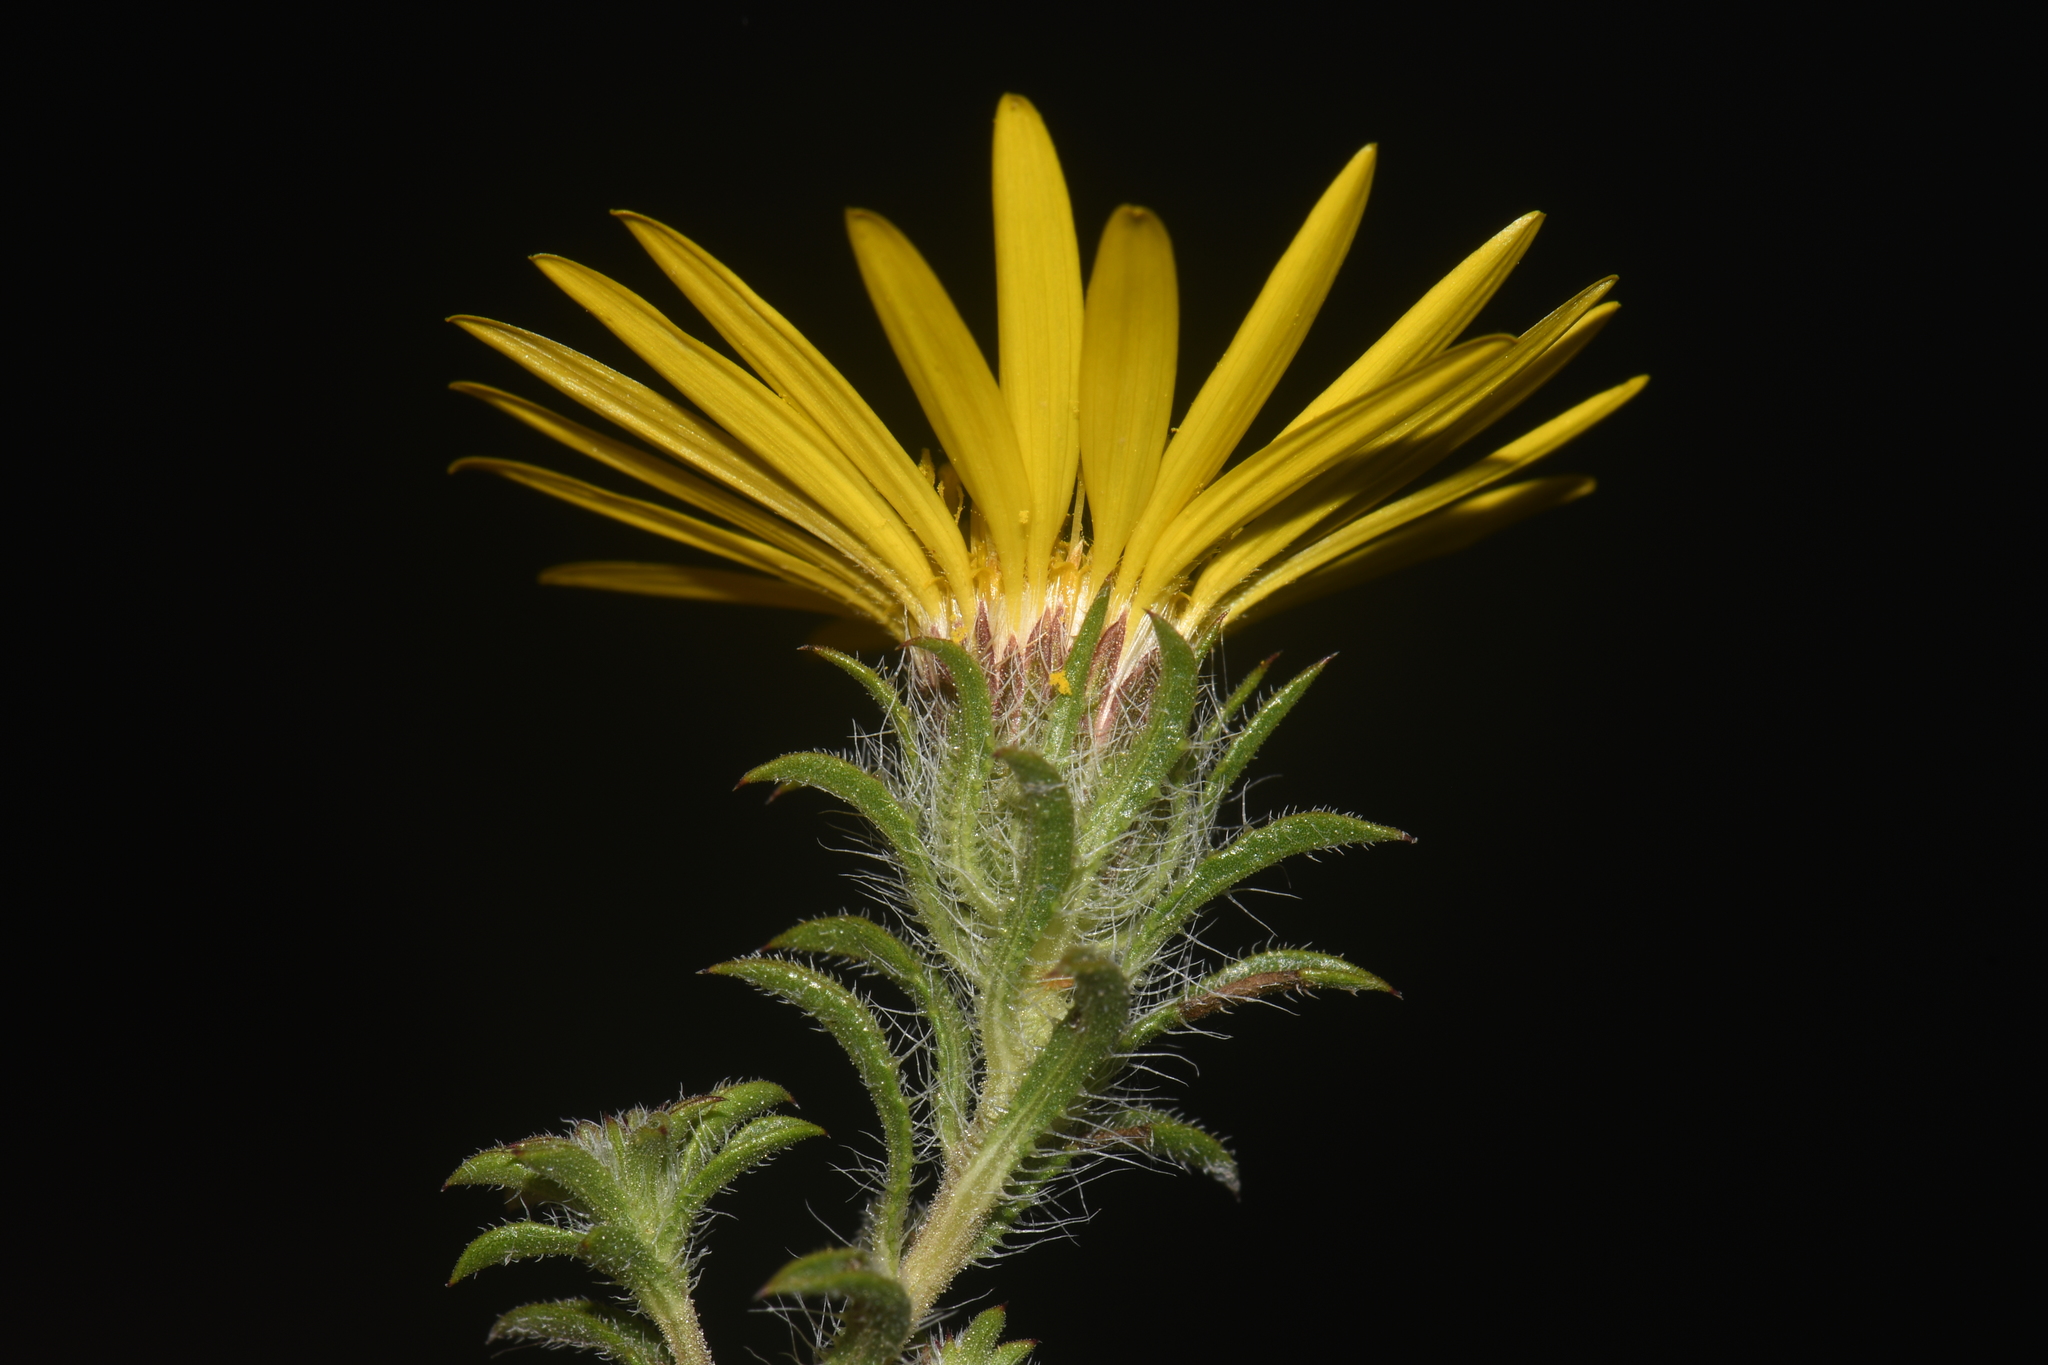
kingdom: Plantae
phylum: Tracheophyta
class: Magnoliopsida
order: Asterales
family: Asteraceae
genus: Heterotheca
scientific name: Heterotheca stenophylla
